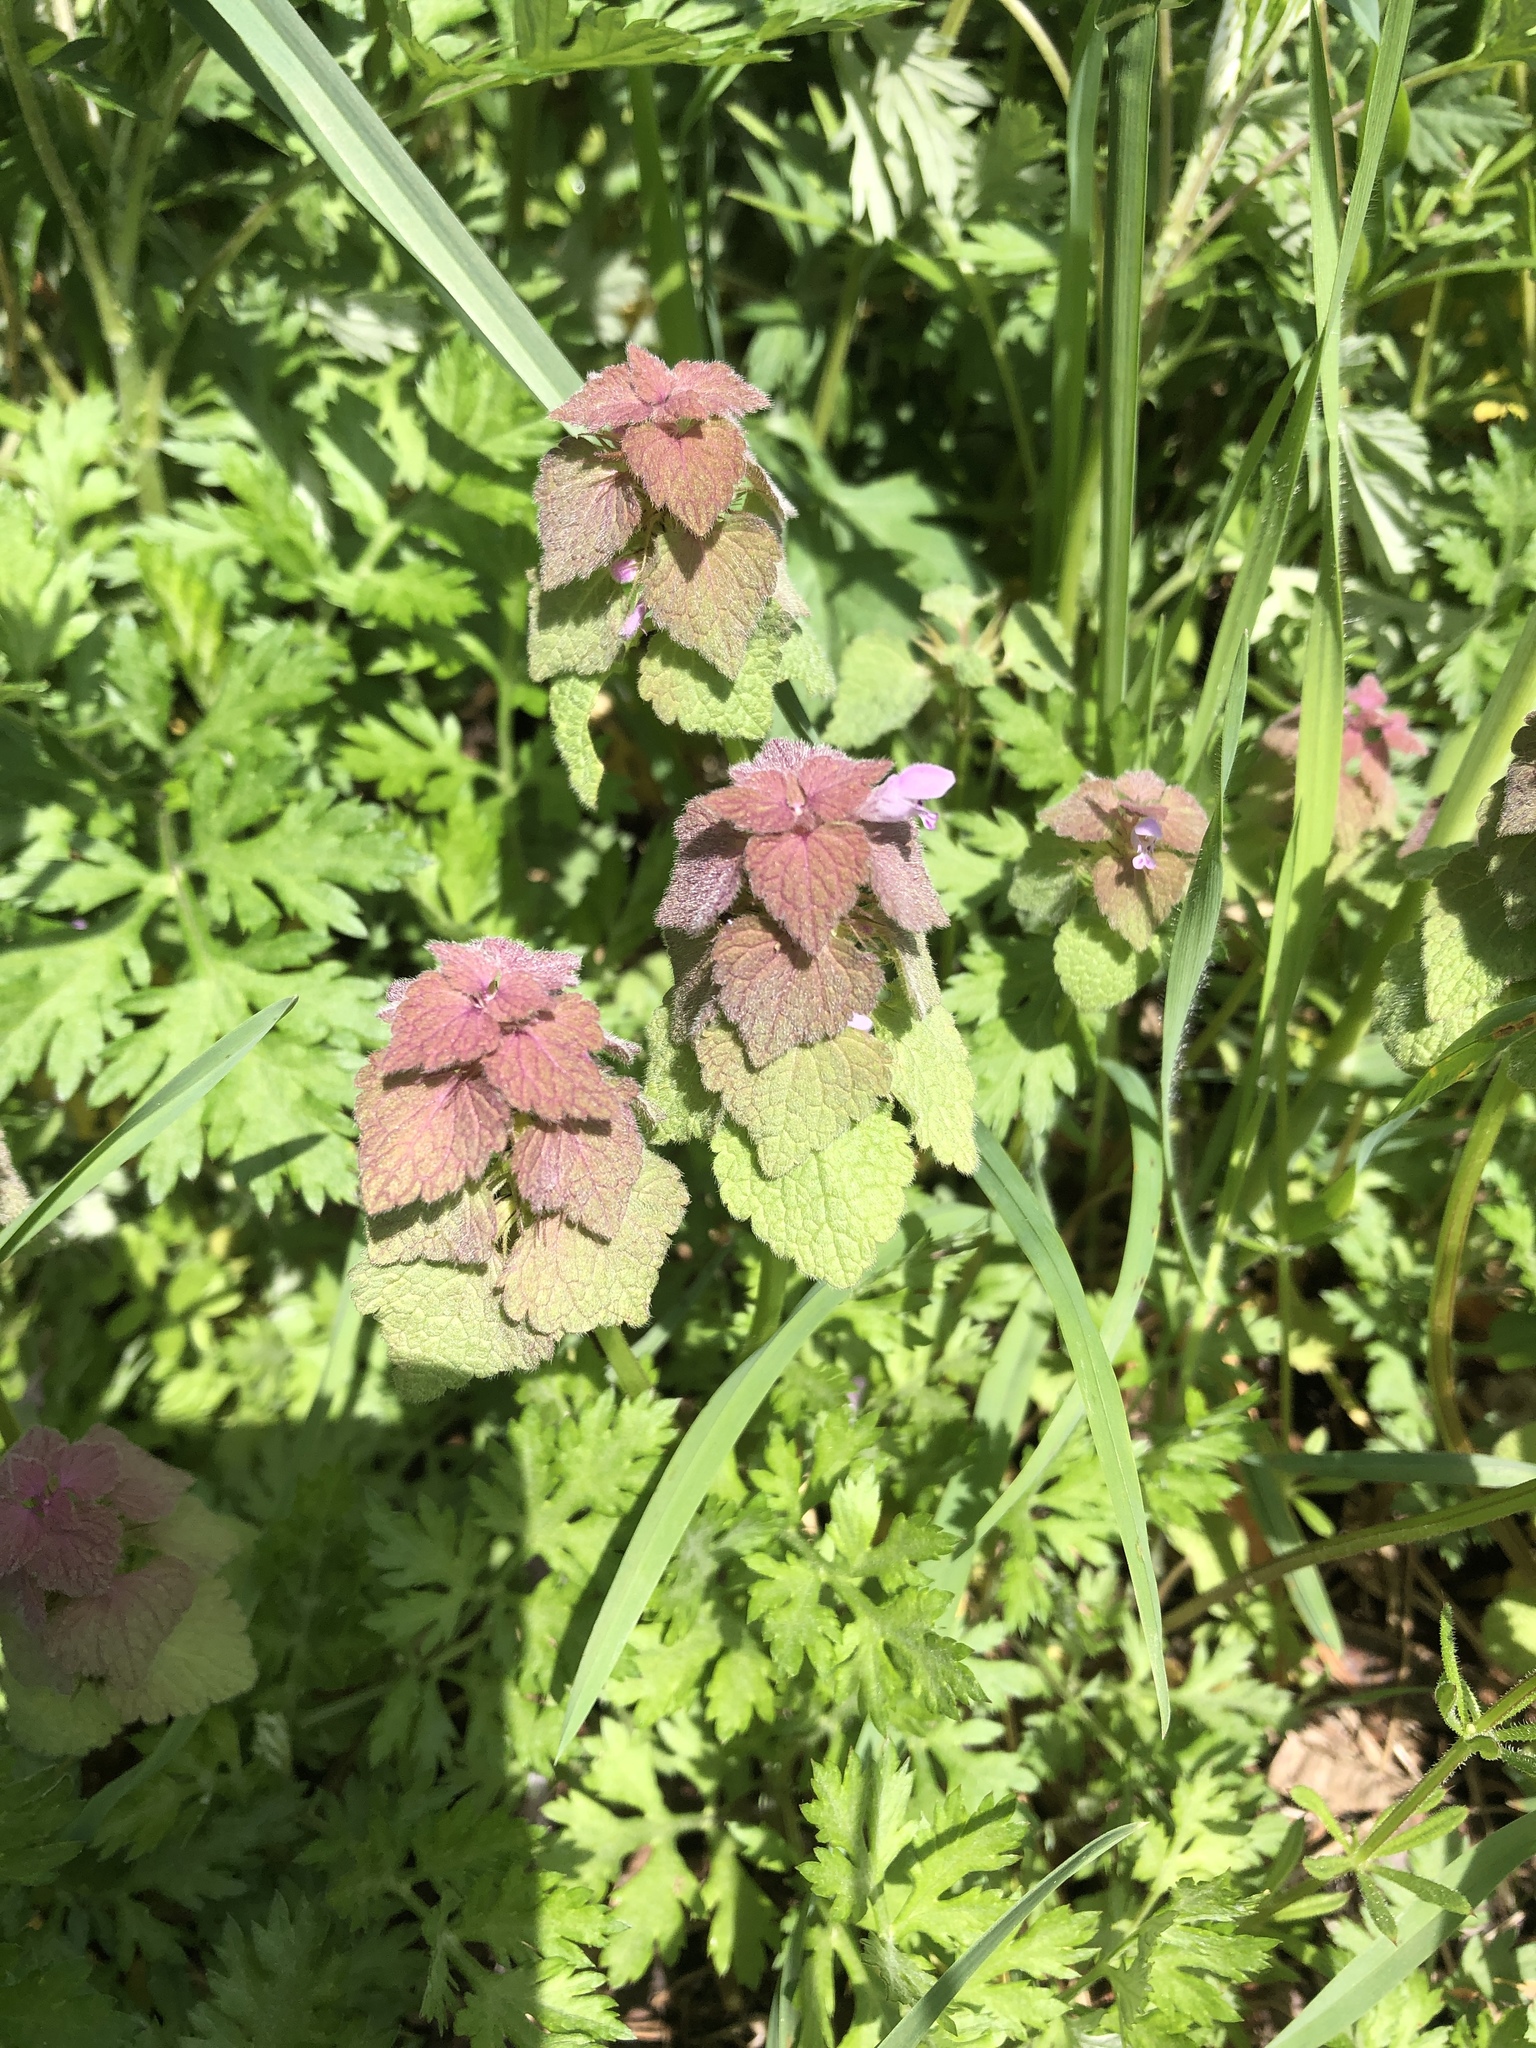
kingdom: Plantae
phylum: Tracheophyta
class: Magnoliopsida
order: Lamiales
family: Lamiaceae
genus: Lamium
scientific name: Lamium purpureum
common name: Red dead-nettle
